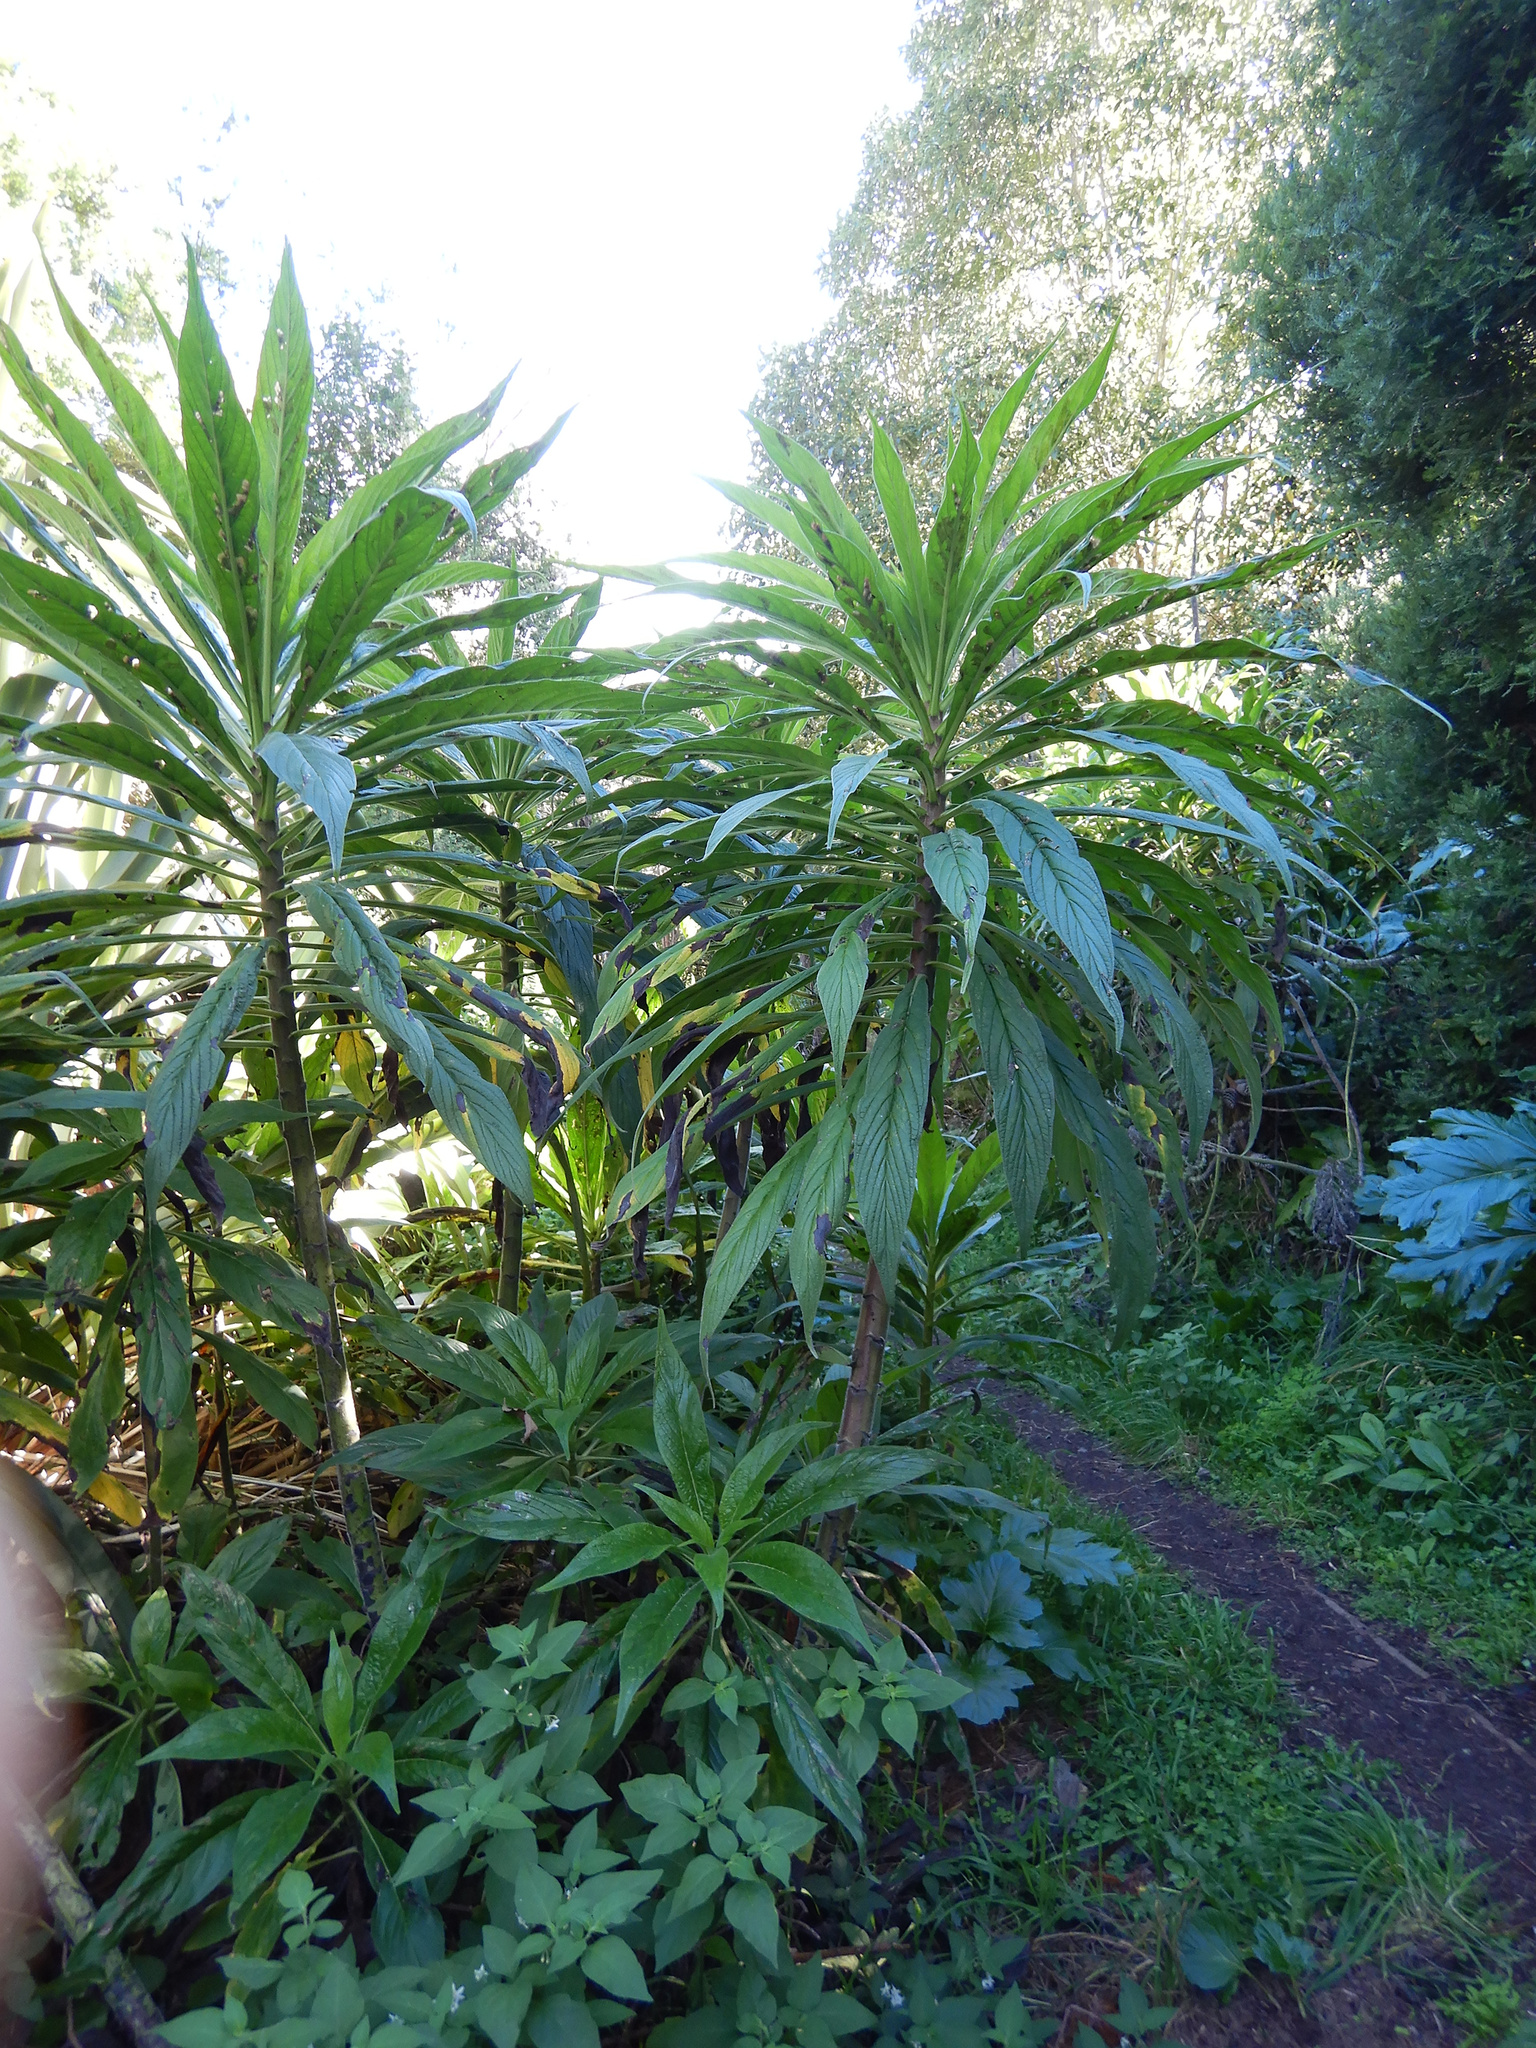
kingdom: Plantae
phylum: Tracheophyta
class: Magnoliopsida
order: Boraginales
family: Boraginaceae
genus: Echium
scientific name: Echium pininana
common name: Giant viper's-bugloss
